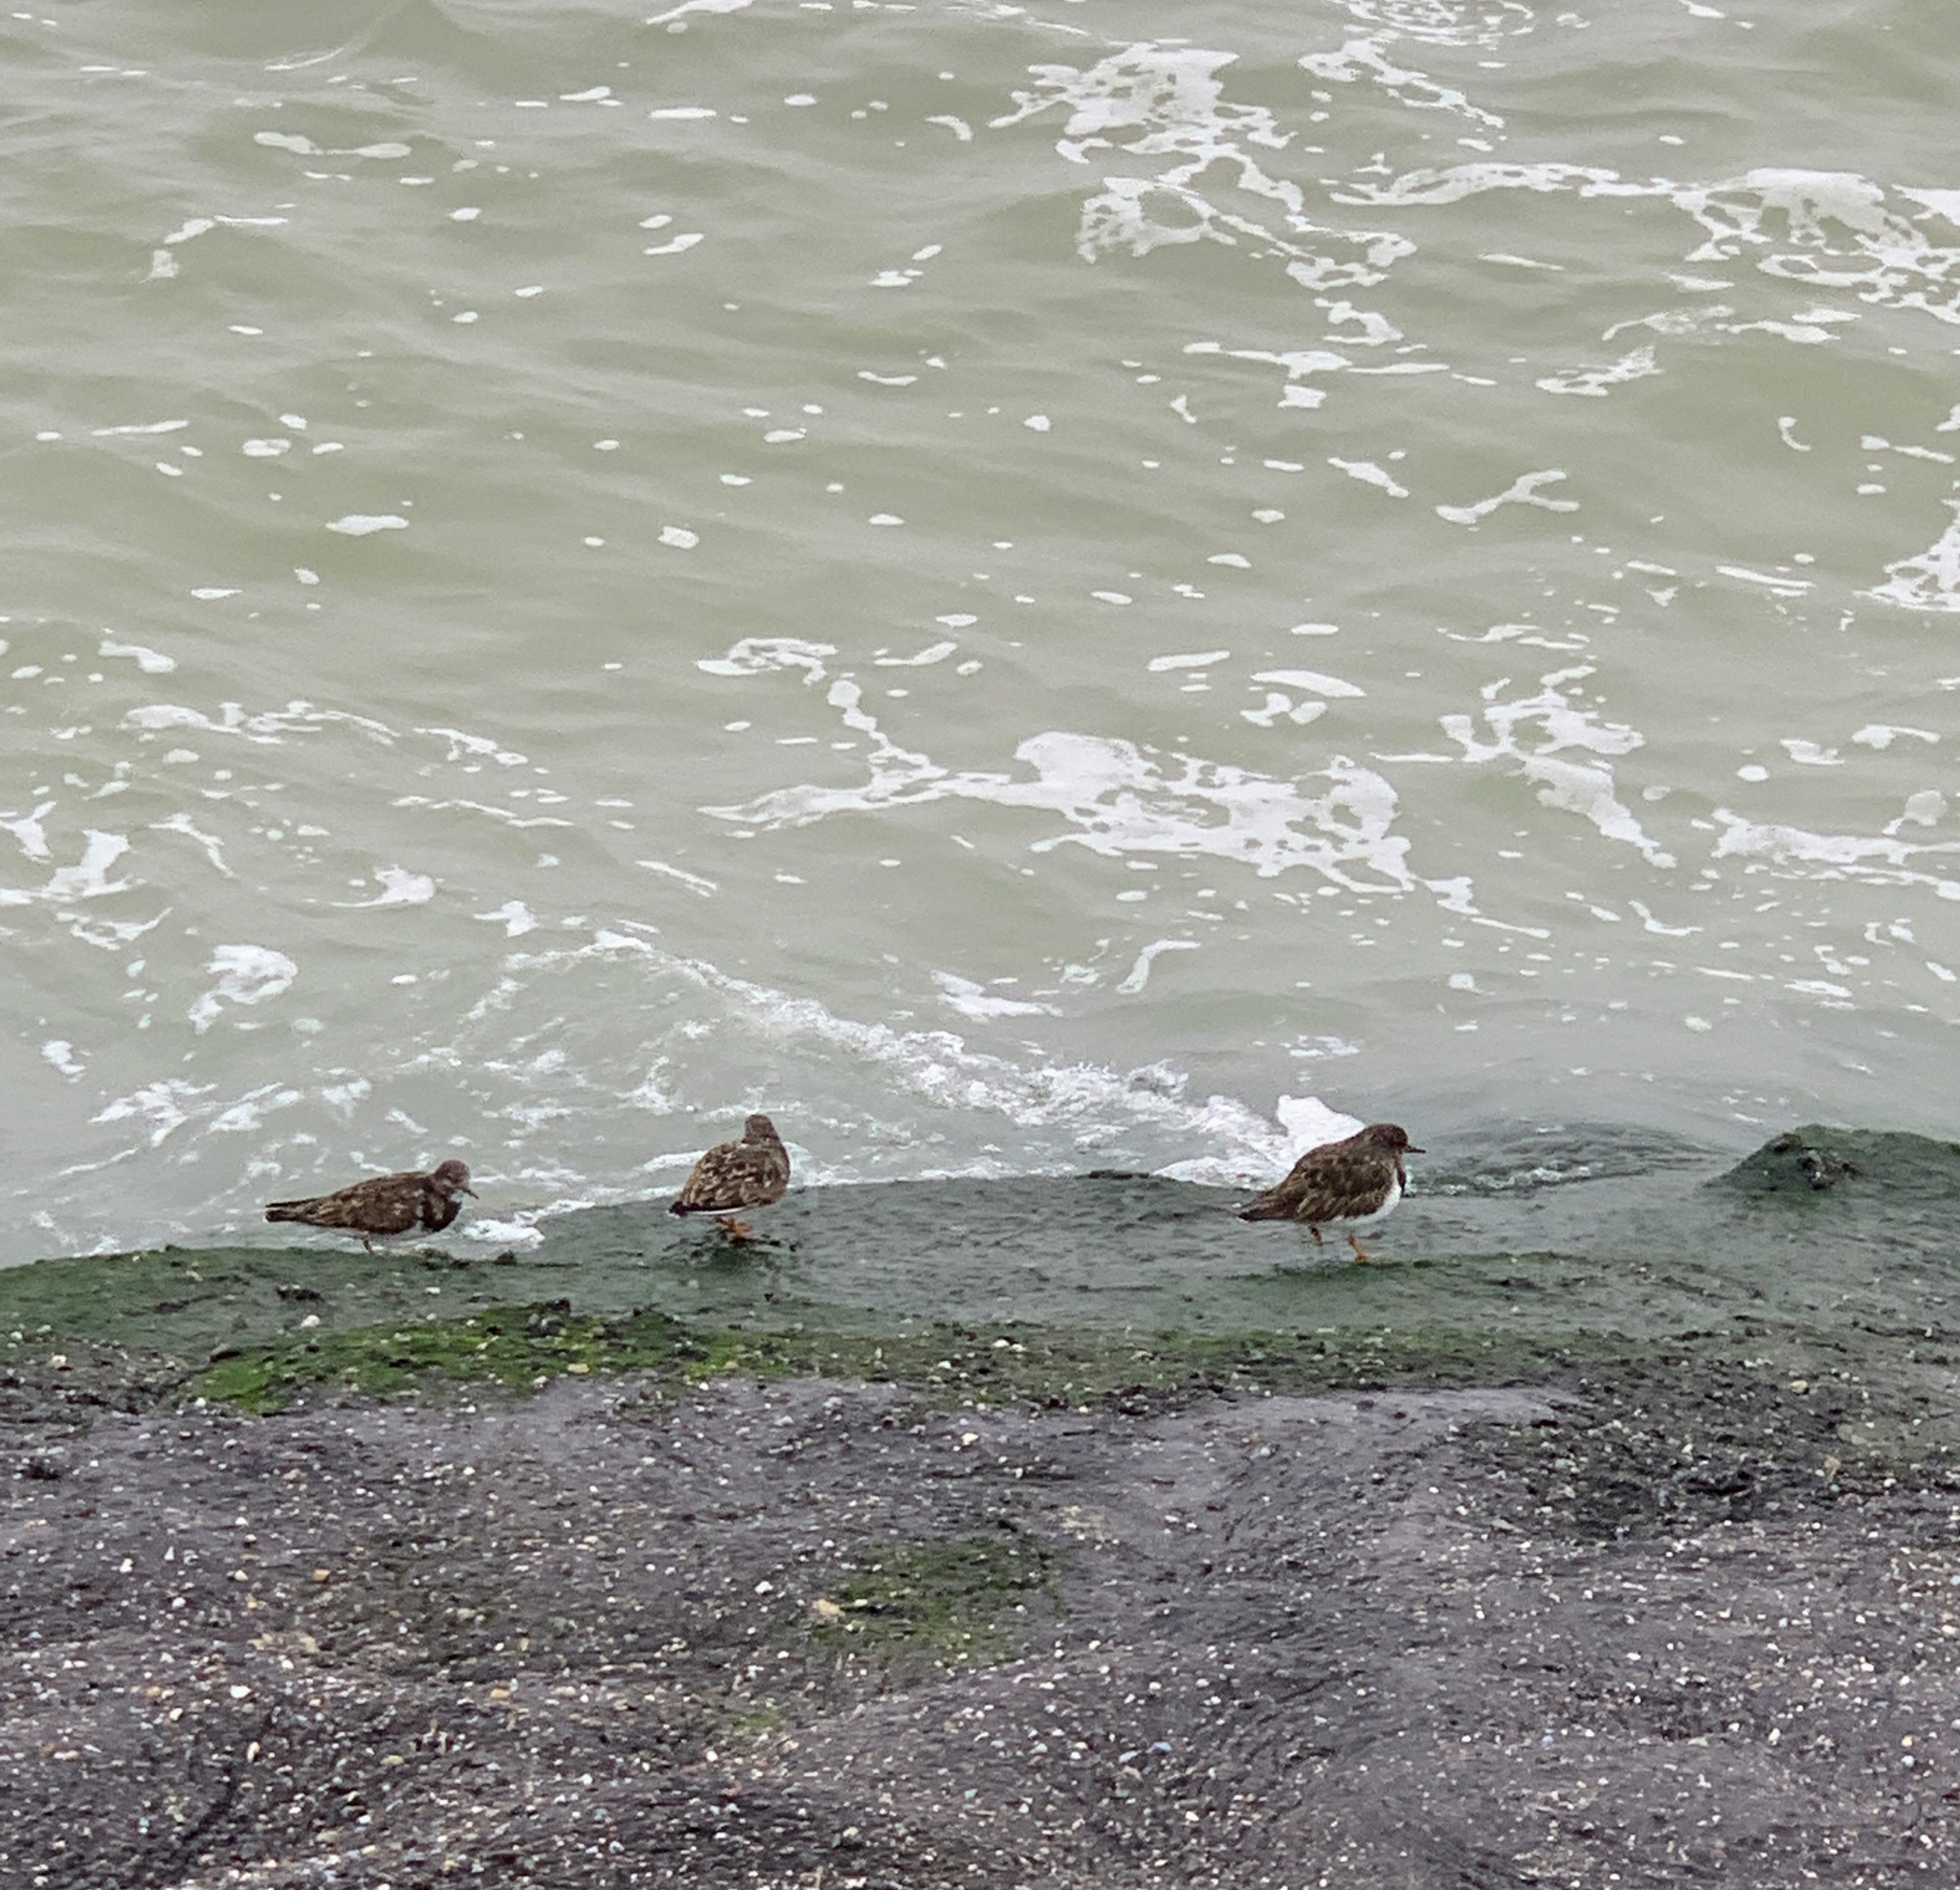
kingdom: Animalia
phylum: Chordata
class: Aves
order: Charadriiformes
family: Scolopacidae
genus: Arenaria
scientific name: Arenaria interpres
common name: Ruddy turnstone
